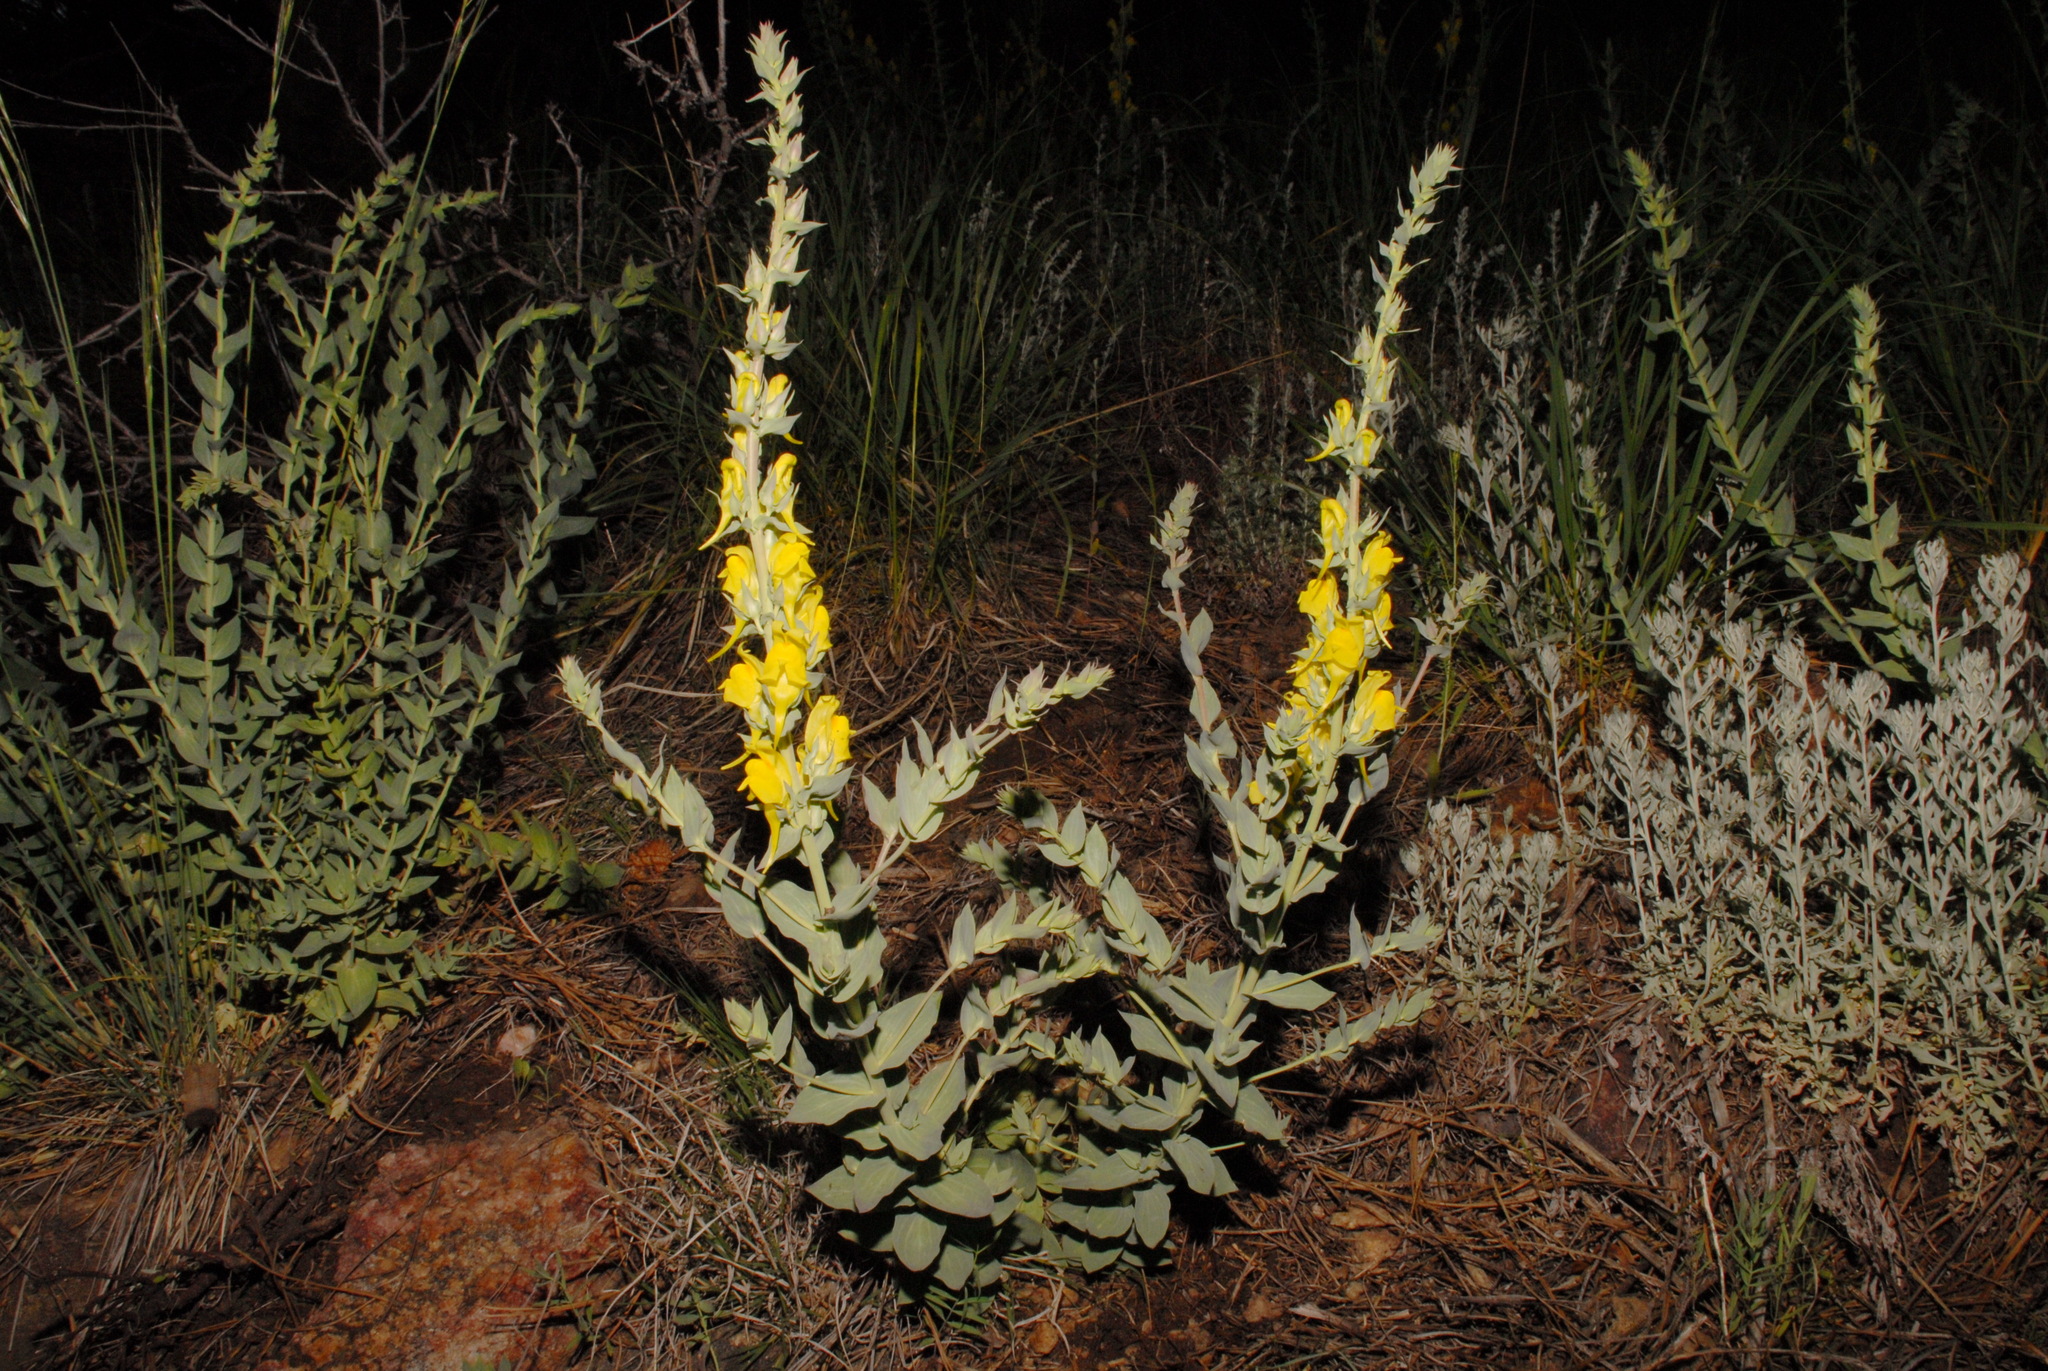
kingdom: Plantae
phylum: Tracheophyta
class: Magnoliopsida
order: Lamiales
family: Plantaginaceae
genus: Linaria
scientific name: Linaria dalmatica
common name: Dalmatian toadflax
